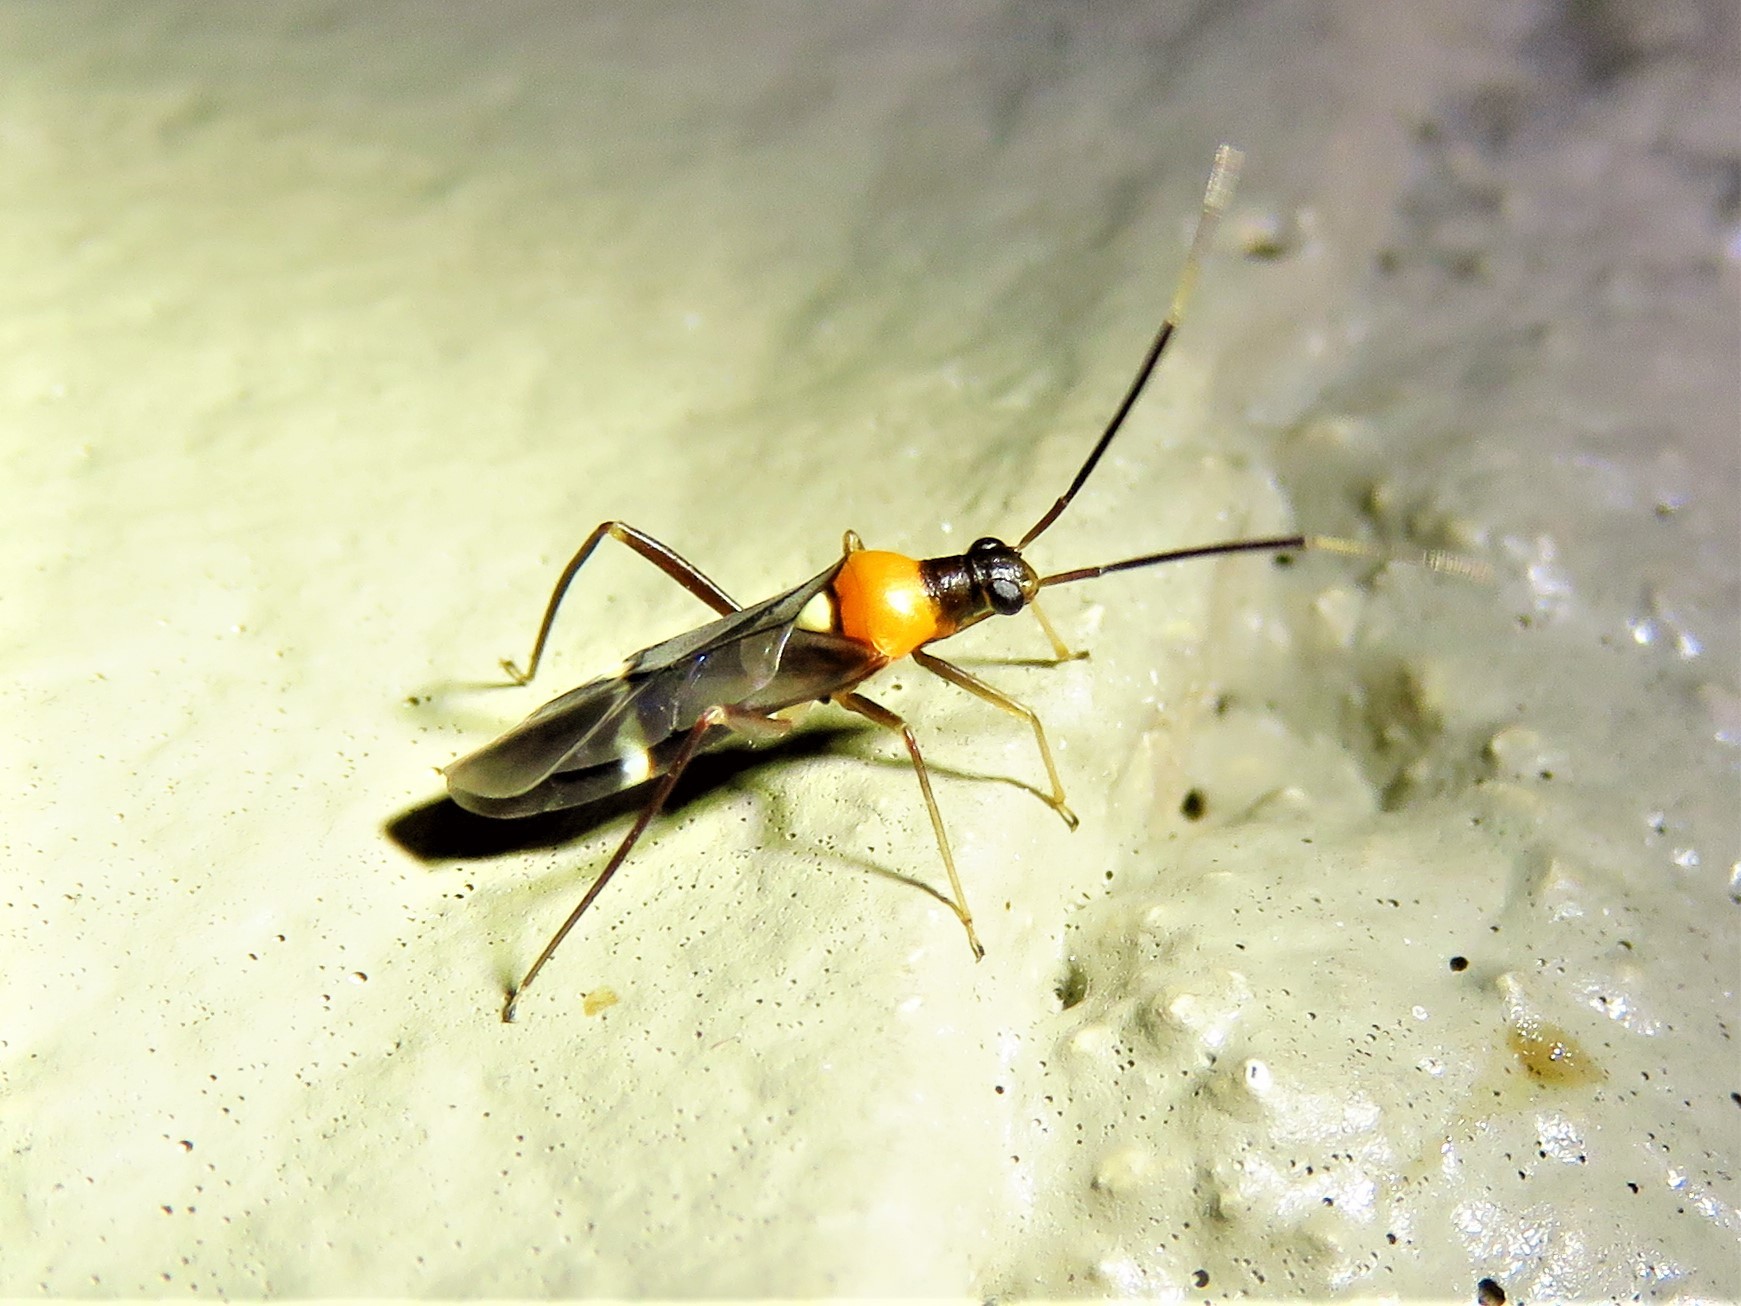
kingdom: Animalia
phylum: Arthropoda
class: Insecta
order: Hemiptera
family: Miridae
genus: Pseudoxenetus
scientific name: Pseudoxenetus regalis
